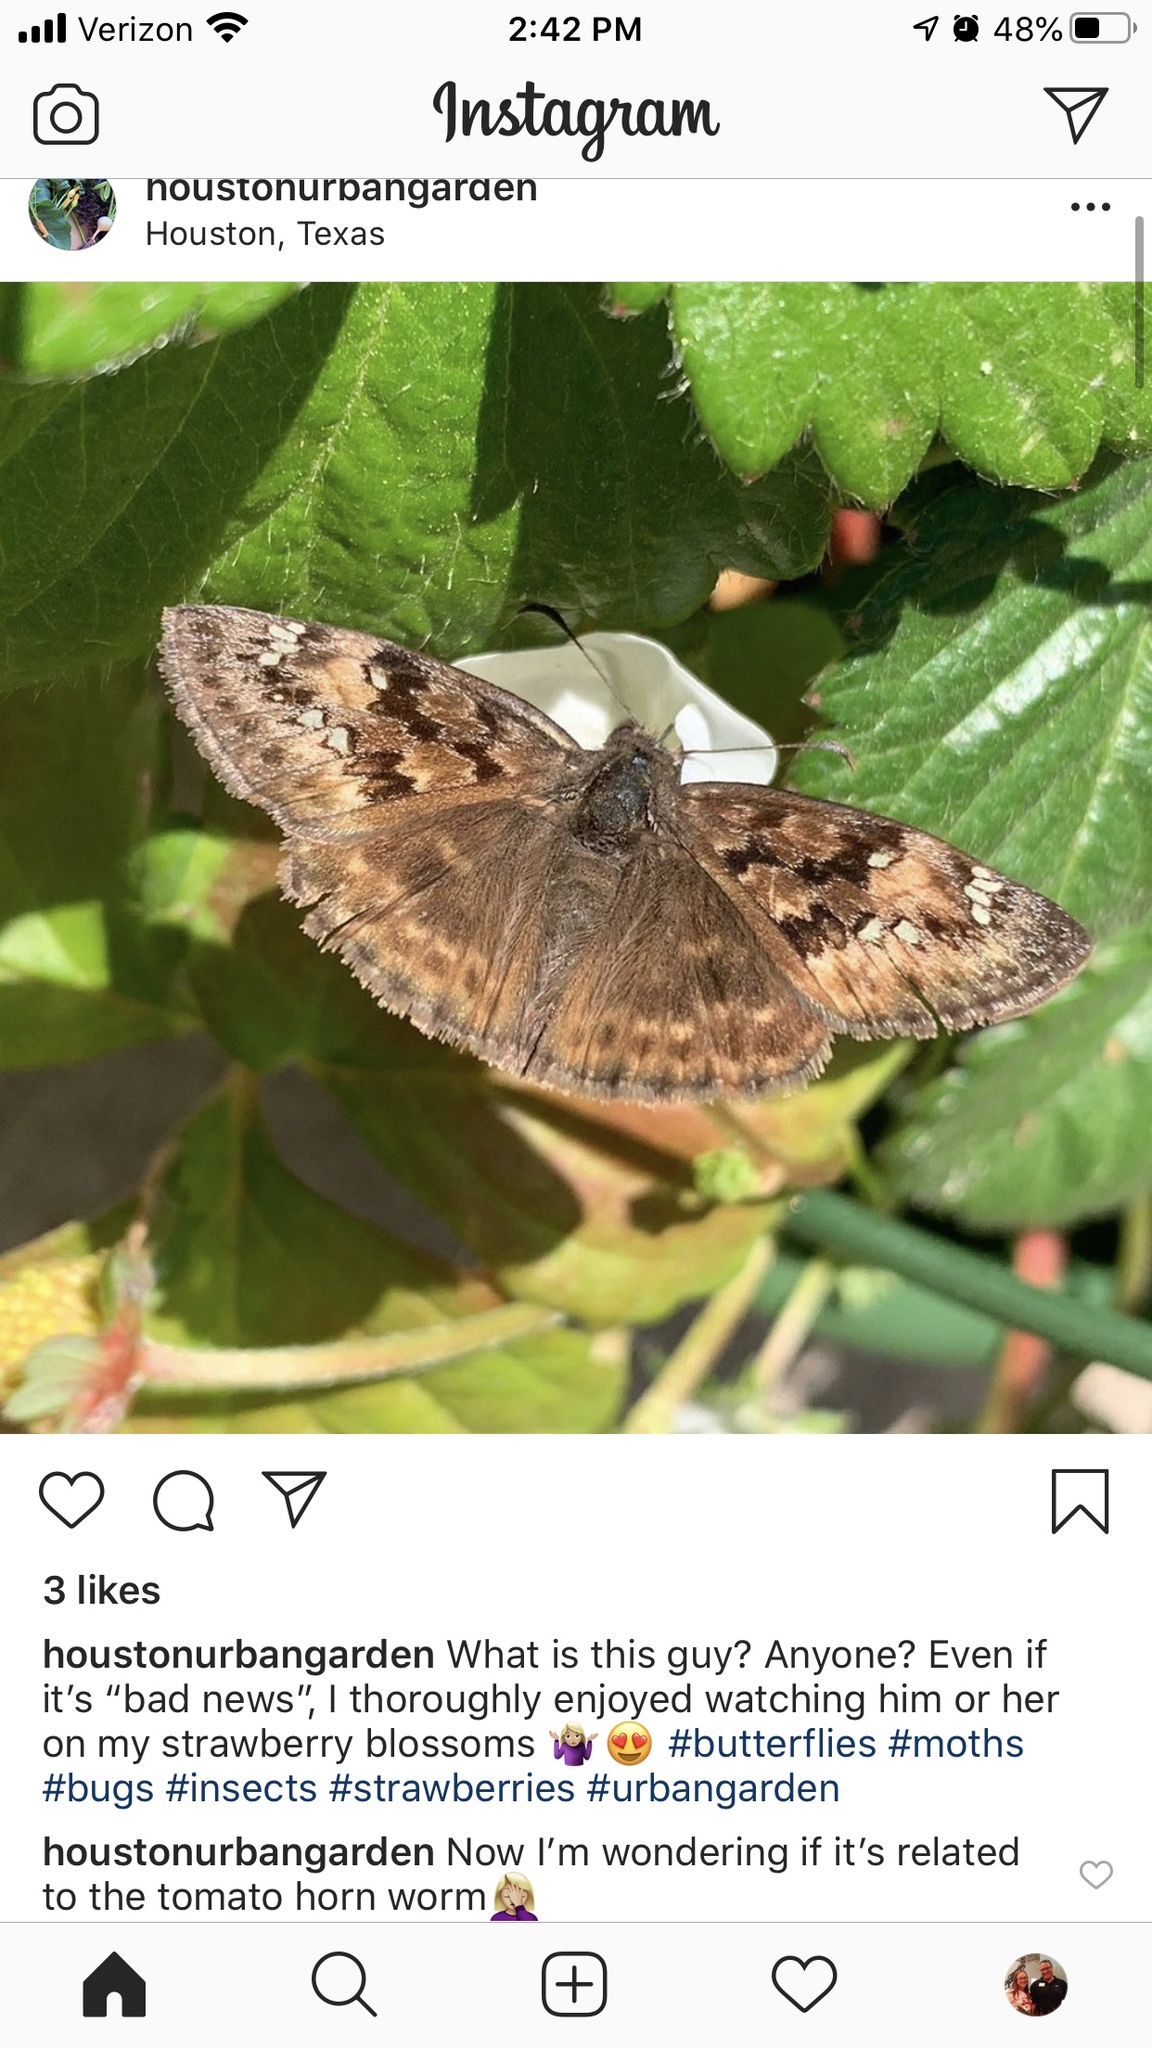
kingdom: Animalia
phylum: Arthropoda
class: Insecta
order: Lepidoptera
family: Hesperiidae
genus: Erynnis
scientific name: Erynnis horatius
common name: Horace's duskywing
